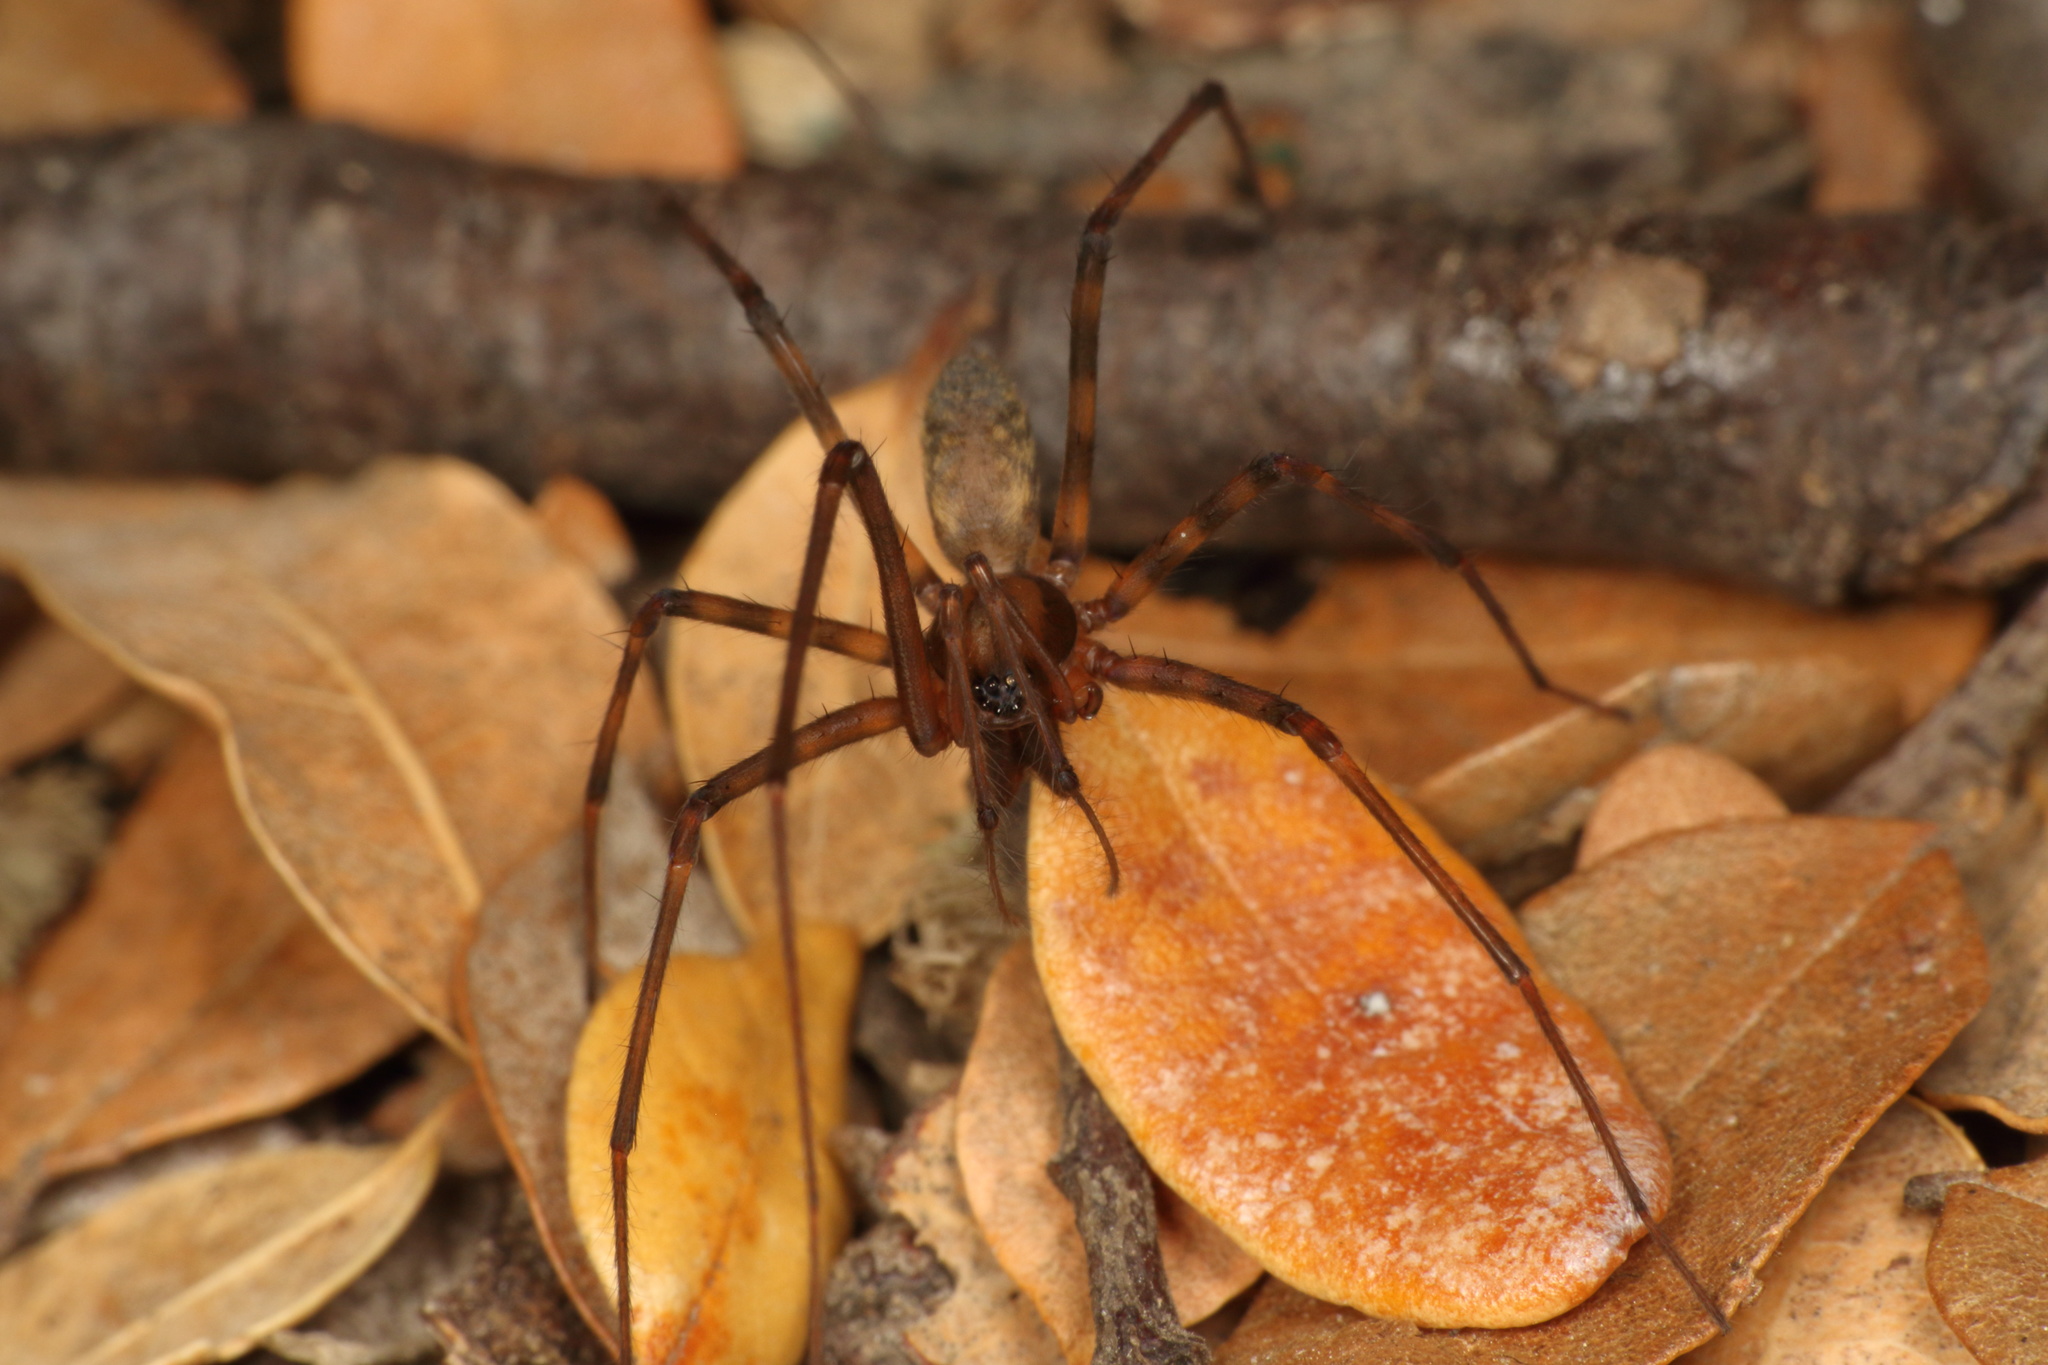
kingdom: Animalia
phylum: Arthropoda
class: Arachnida
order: Araneae
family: Desidae
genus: Nanocambridgea
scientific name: Nanocambridgea gracilipes
